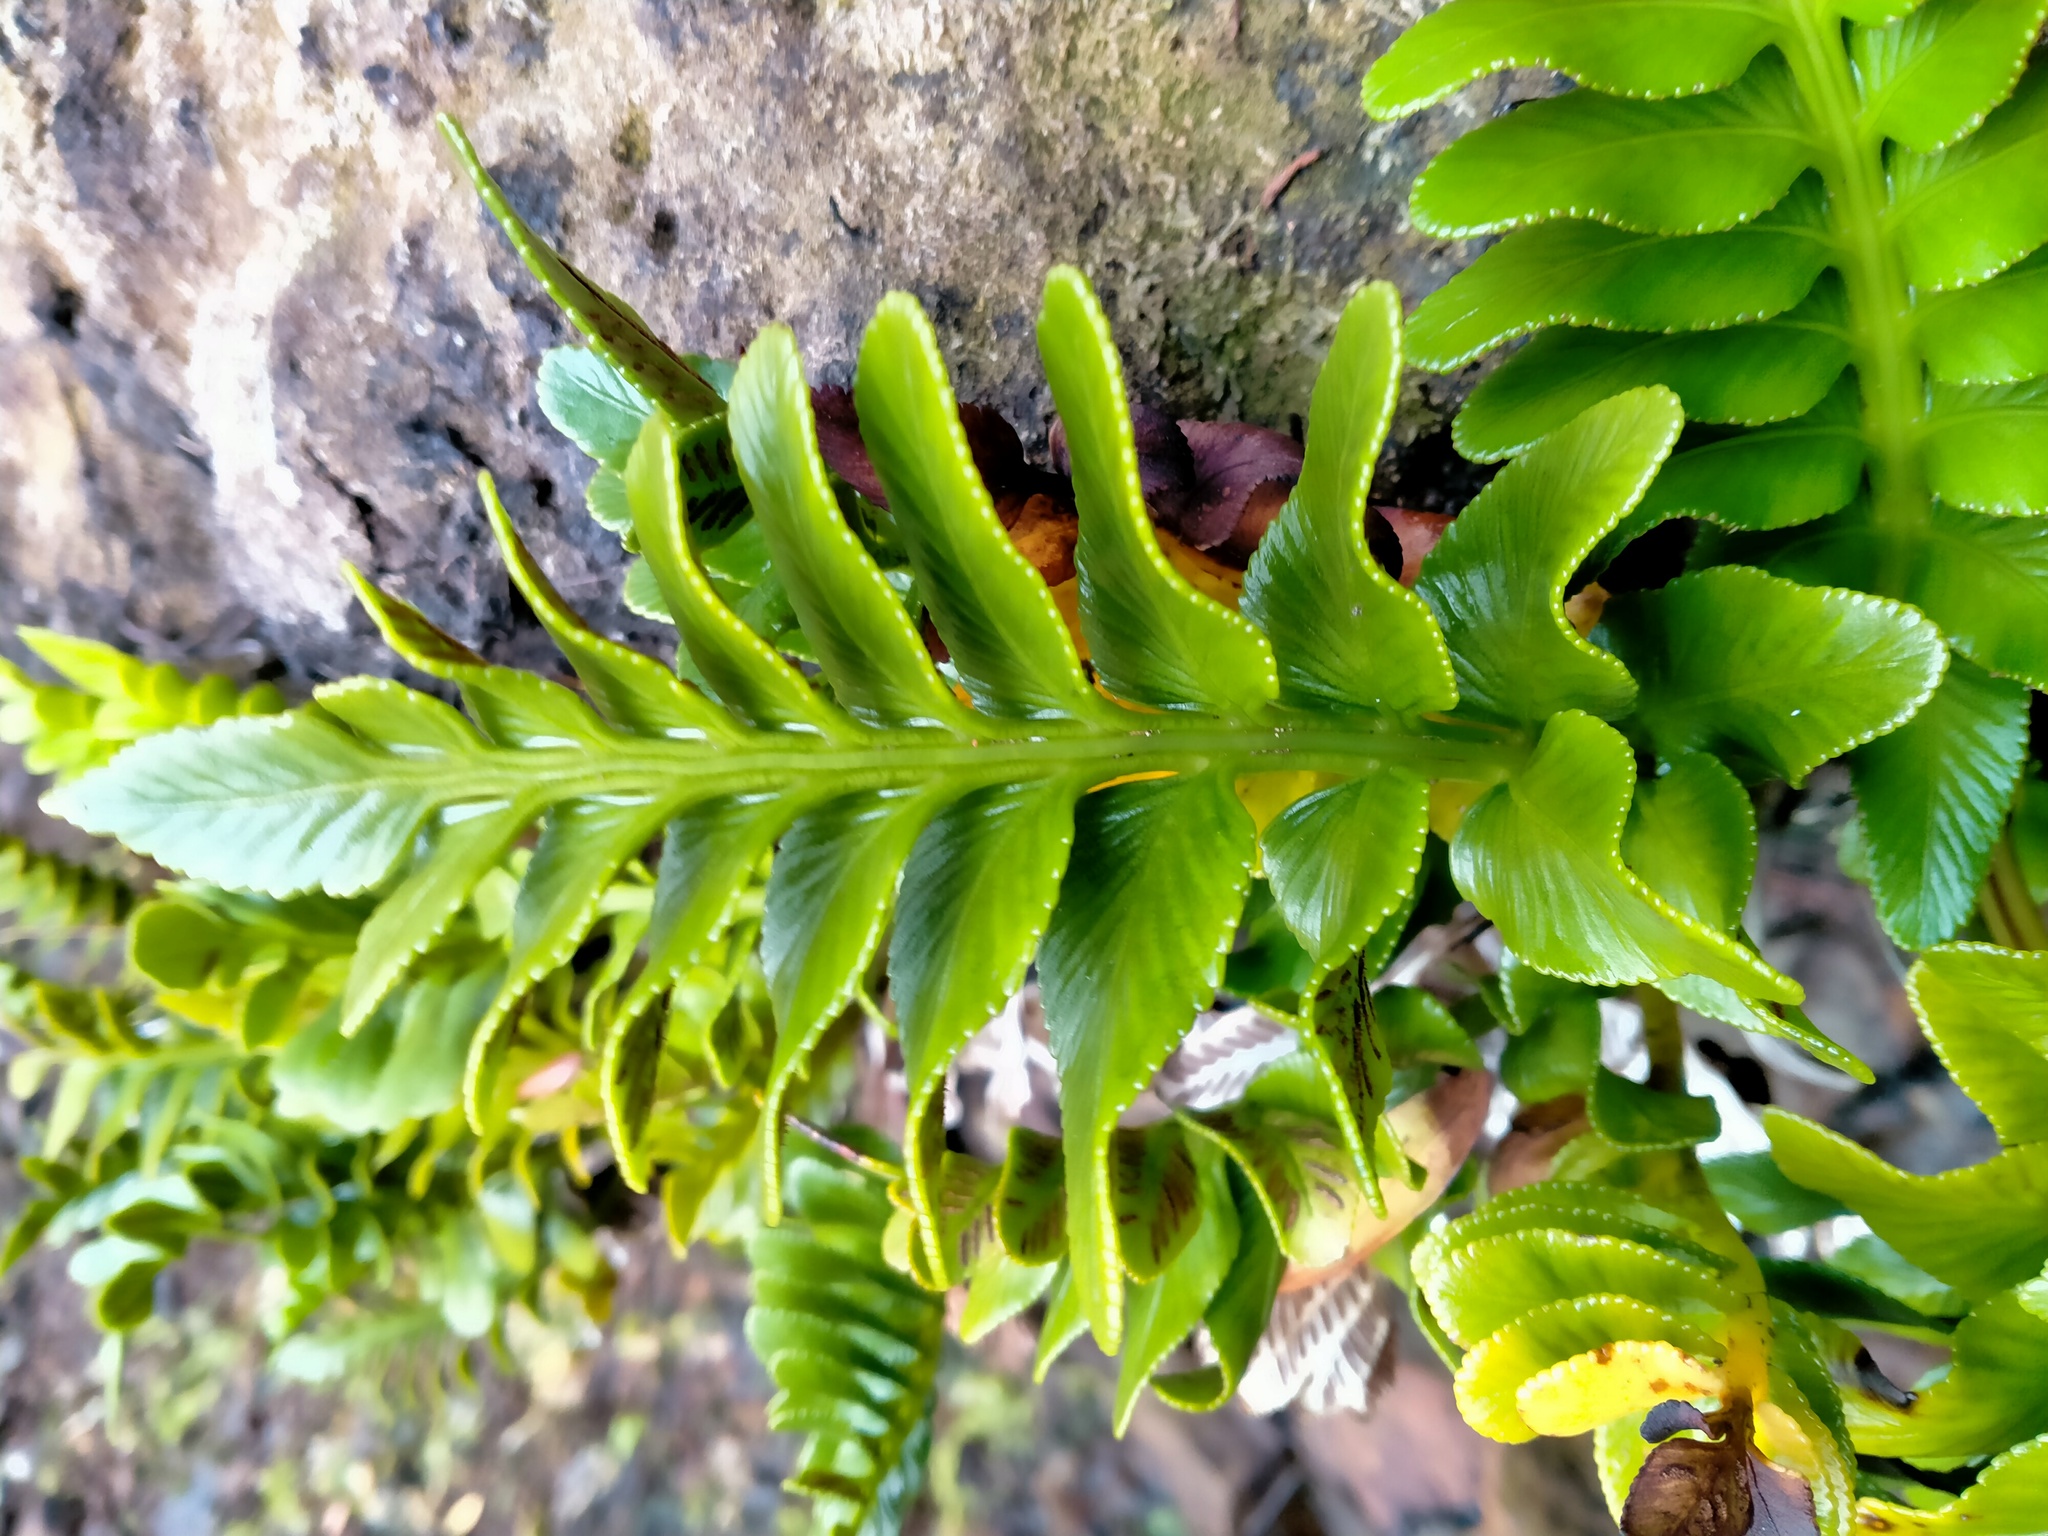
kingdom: Plantae
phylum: Tracheophyta
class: Polypodiopsida
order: Polypodiales
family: Aspleniaceae
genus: Asplenium
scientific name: Asplenium obtusatum
